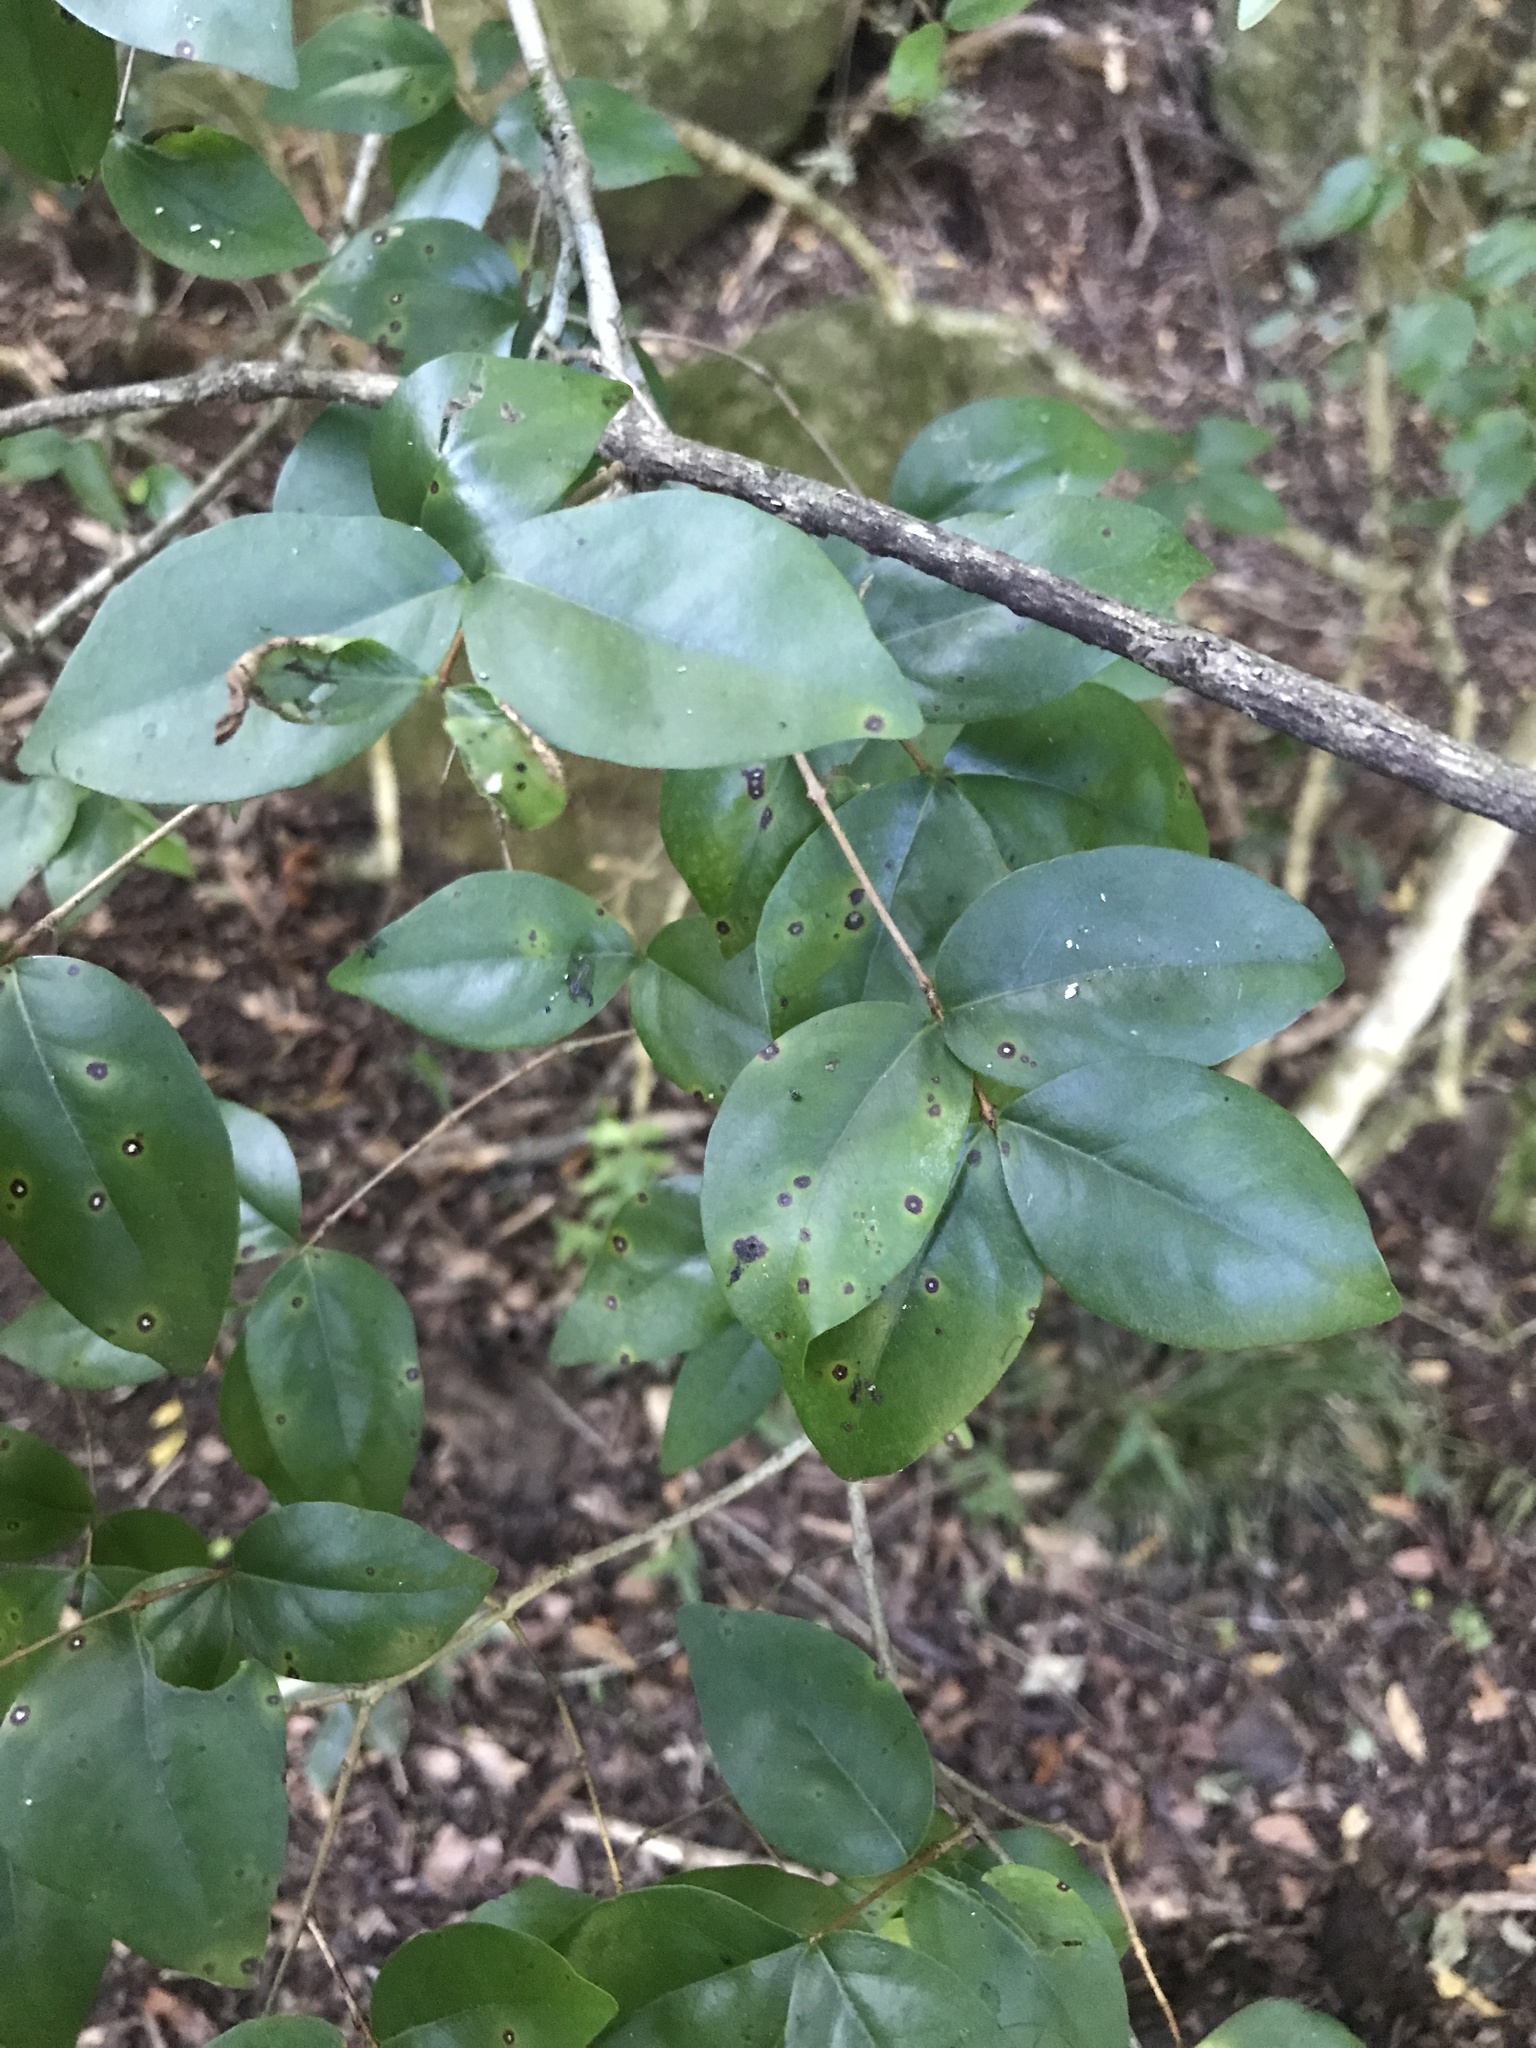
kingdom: Plantae
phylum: Tracheophyta
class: Magnoliopsida
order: Myrtales
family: Myrtaceae
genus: Eugenia
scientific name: Eugenia uniflora
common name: Surinam cherry
